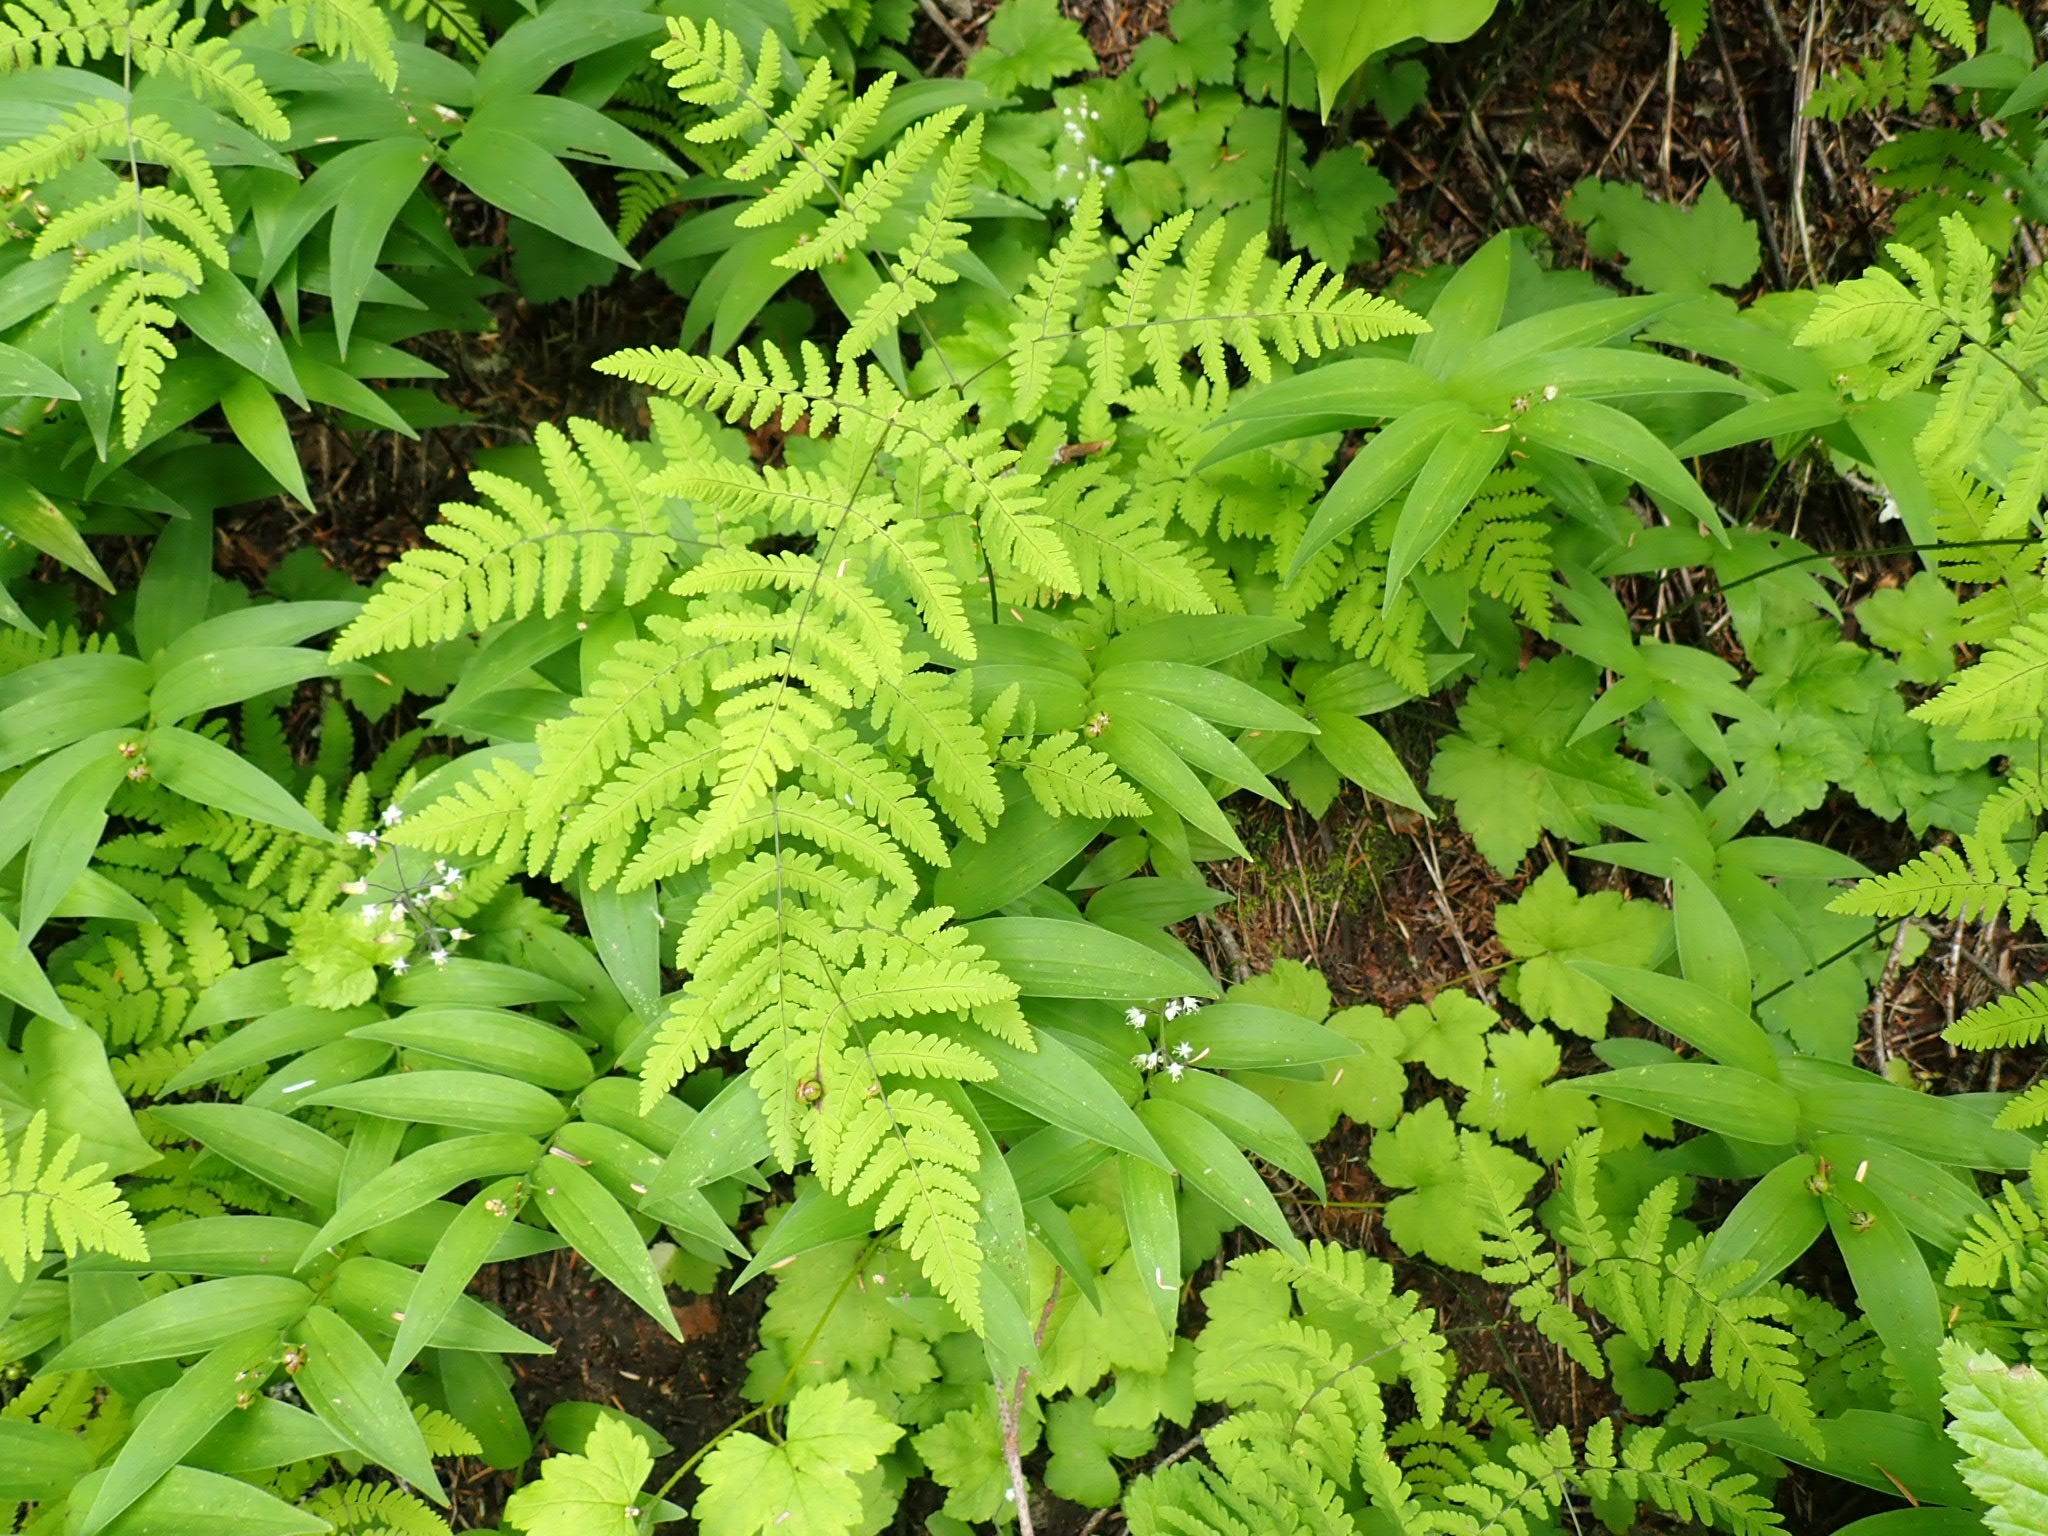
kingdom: Plantae
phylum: Tracheophyta
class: Polypodiopsida
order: Polypodiales
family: Cystopteridaceae
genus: Gymnocarpium
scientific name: Gymnocarpium disjunctum
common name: Western oak fern
